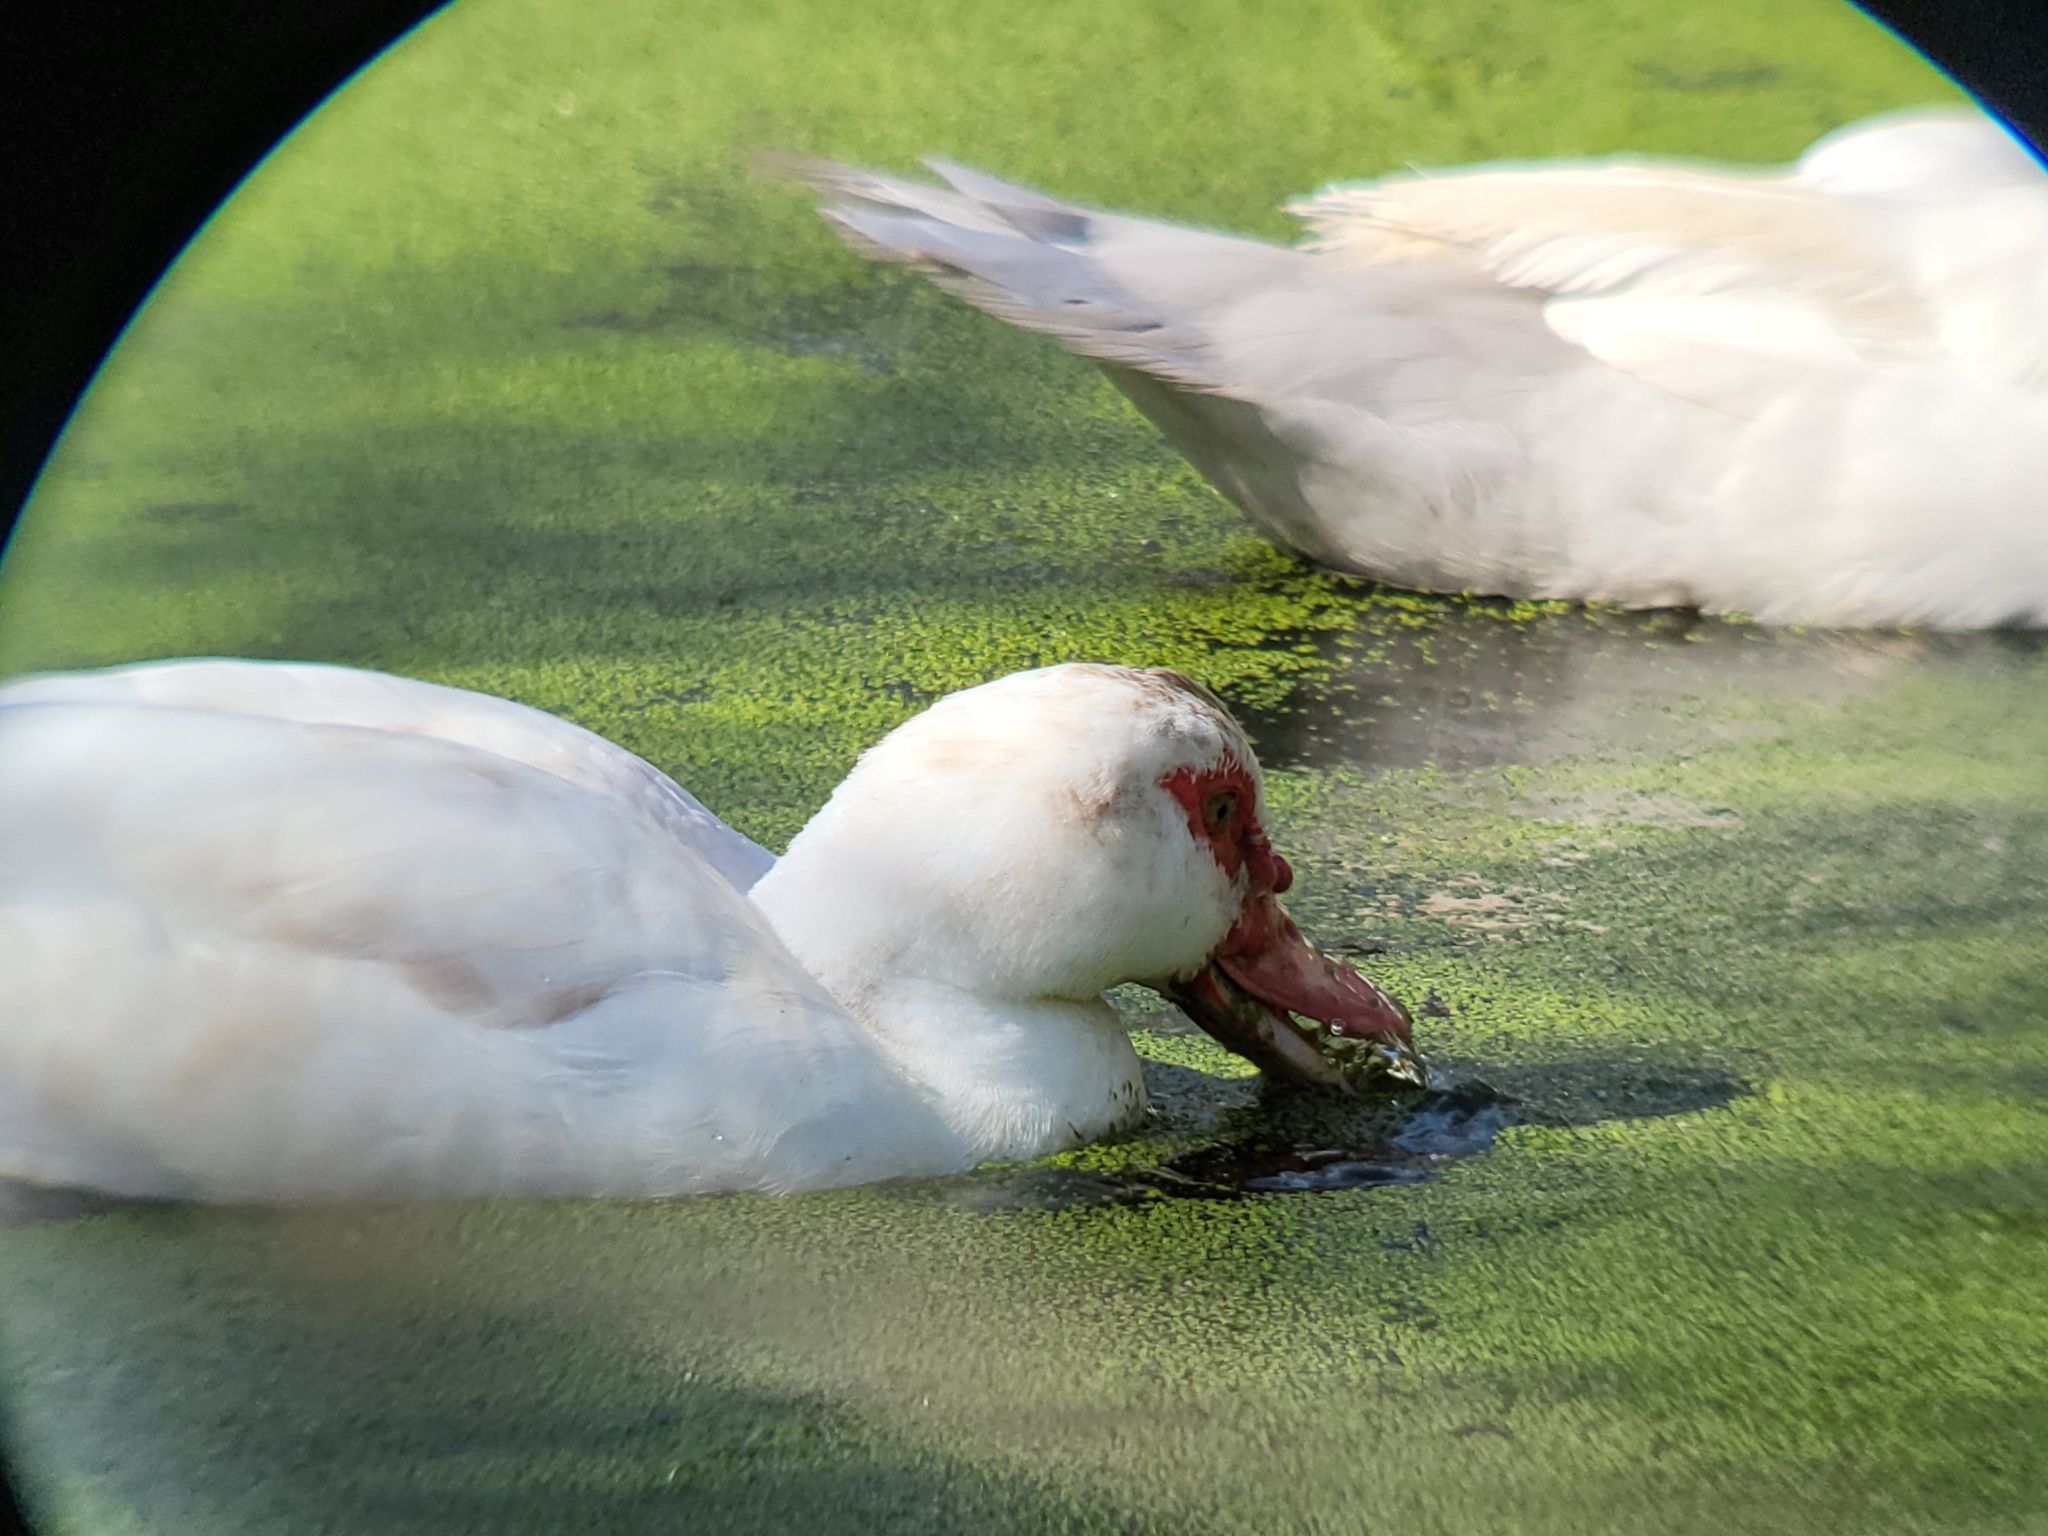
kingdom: Animalia
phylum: Chordata
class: Aves
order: Anseriformes
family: Anatidae
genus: Cairina
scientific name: Cairina moschata
